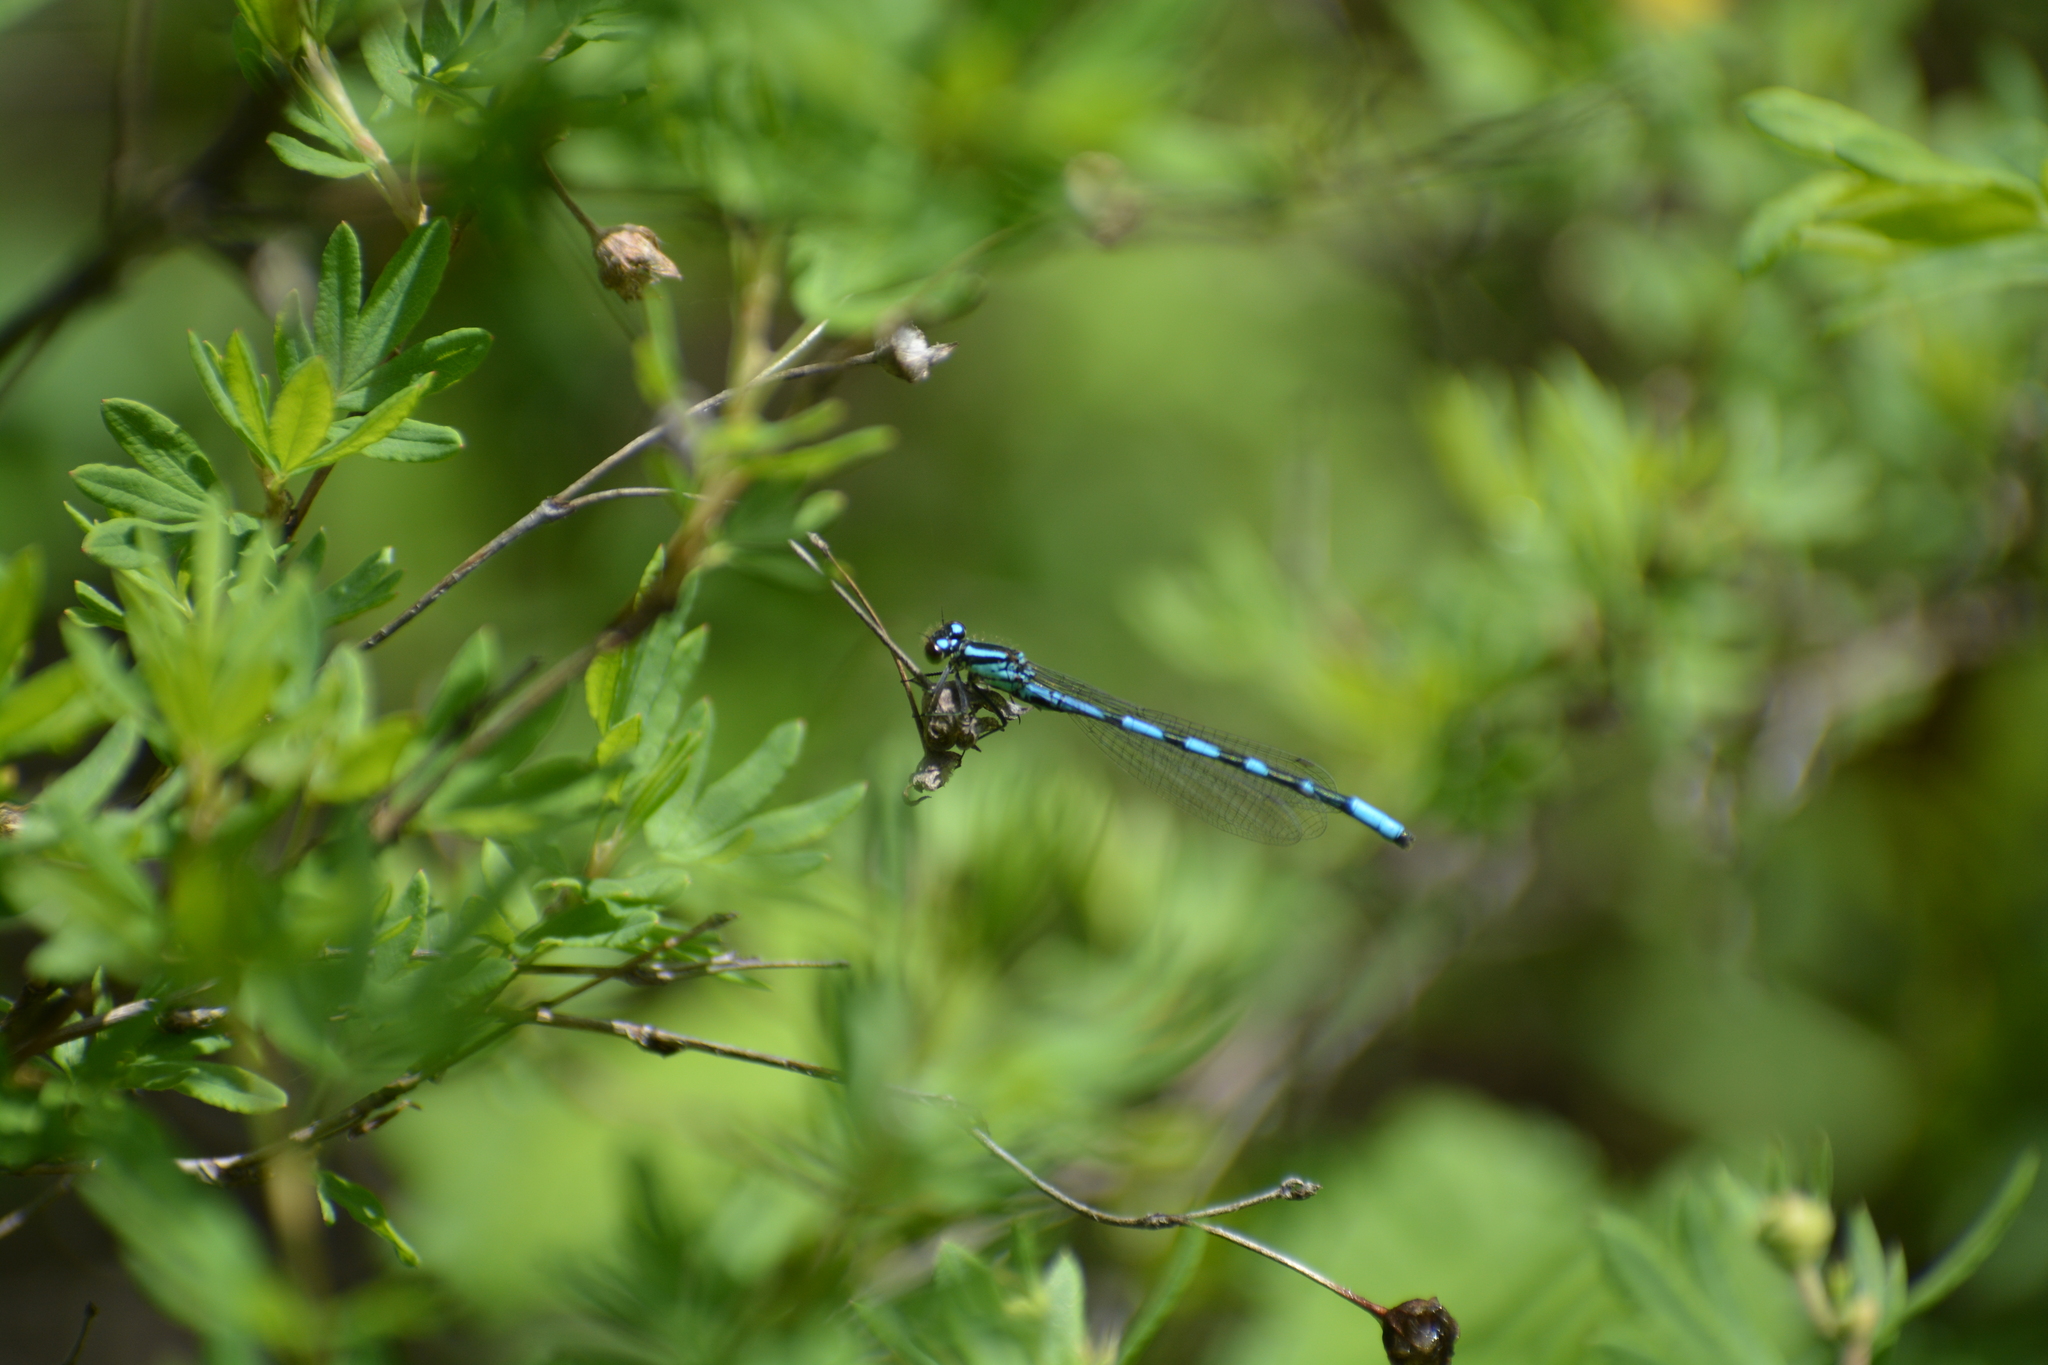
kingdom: Animalia
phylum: Arthropoda
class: Insecta
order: Odonata
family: Coenagrionidae
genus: Coenagrion
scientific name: Coenagrion hylas
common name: Frey's damselfly
